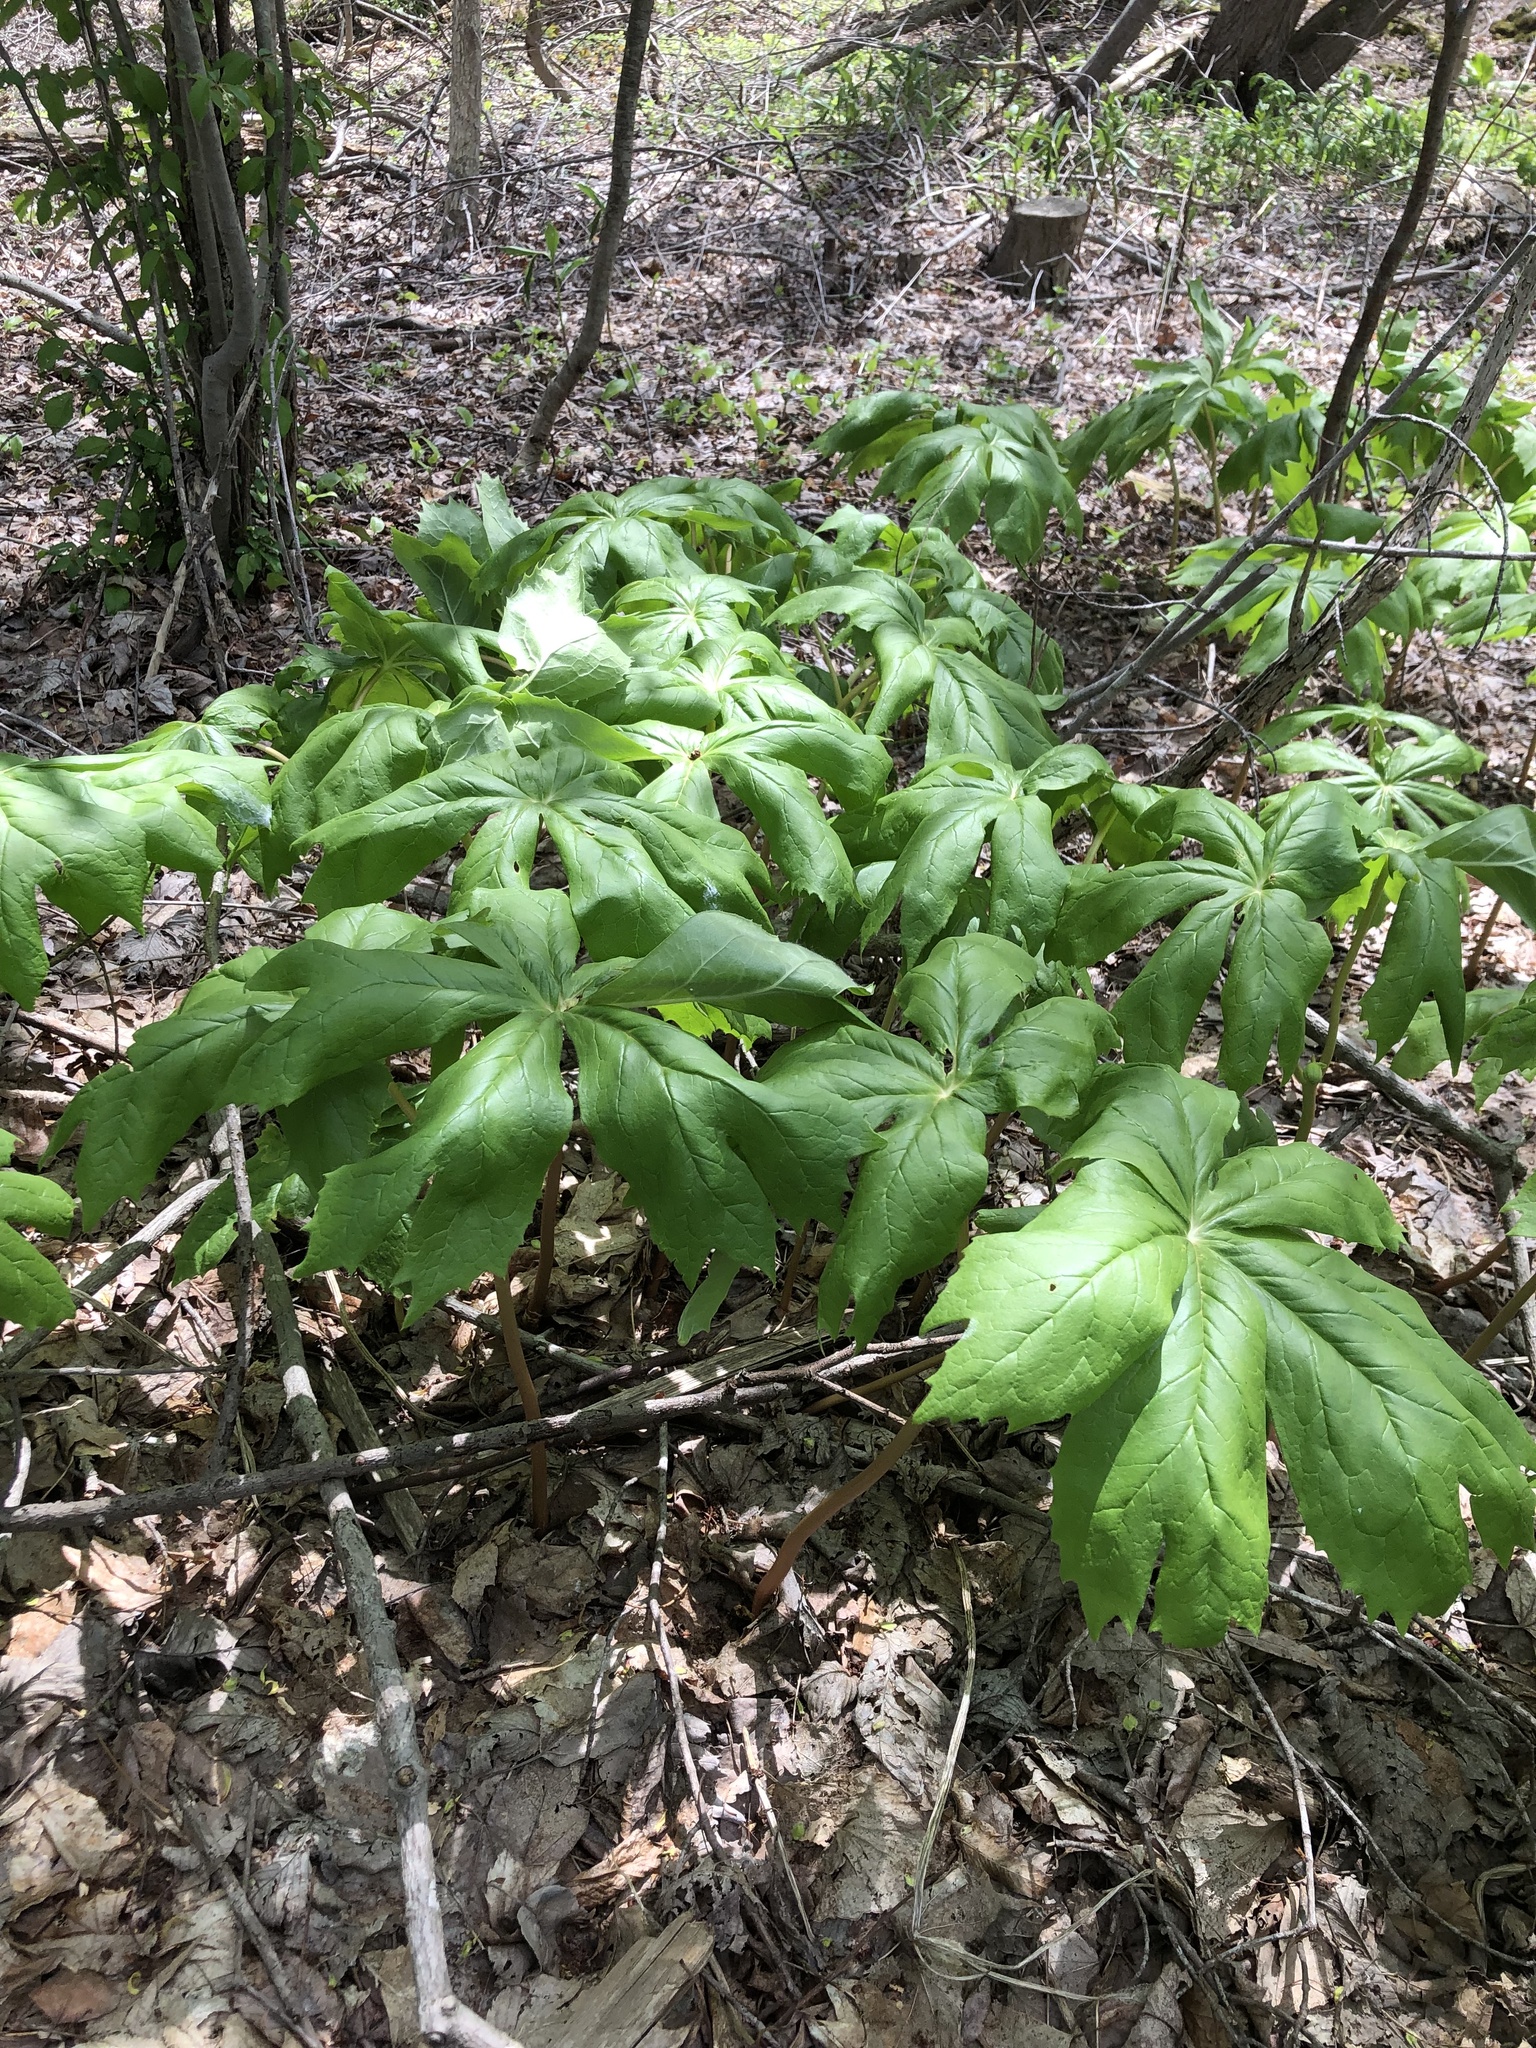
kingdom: Plantae
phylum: Tracheophyta
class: Magnoliopsida
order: Ranunculales
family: Berberidaceae
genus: Podophyllum
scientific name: Podophyllum peltatum
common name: Wild mandrake
